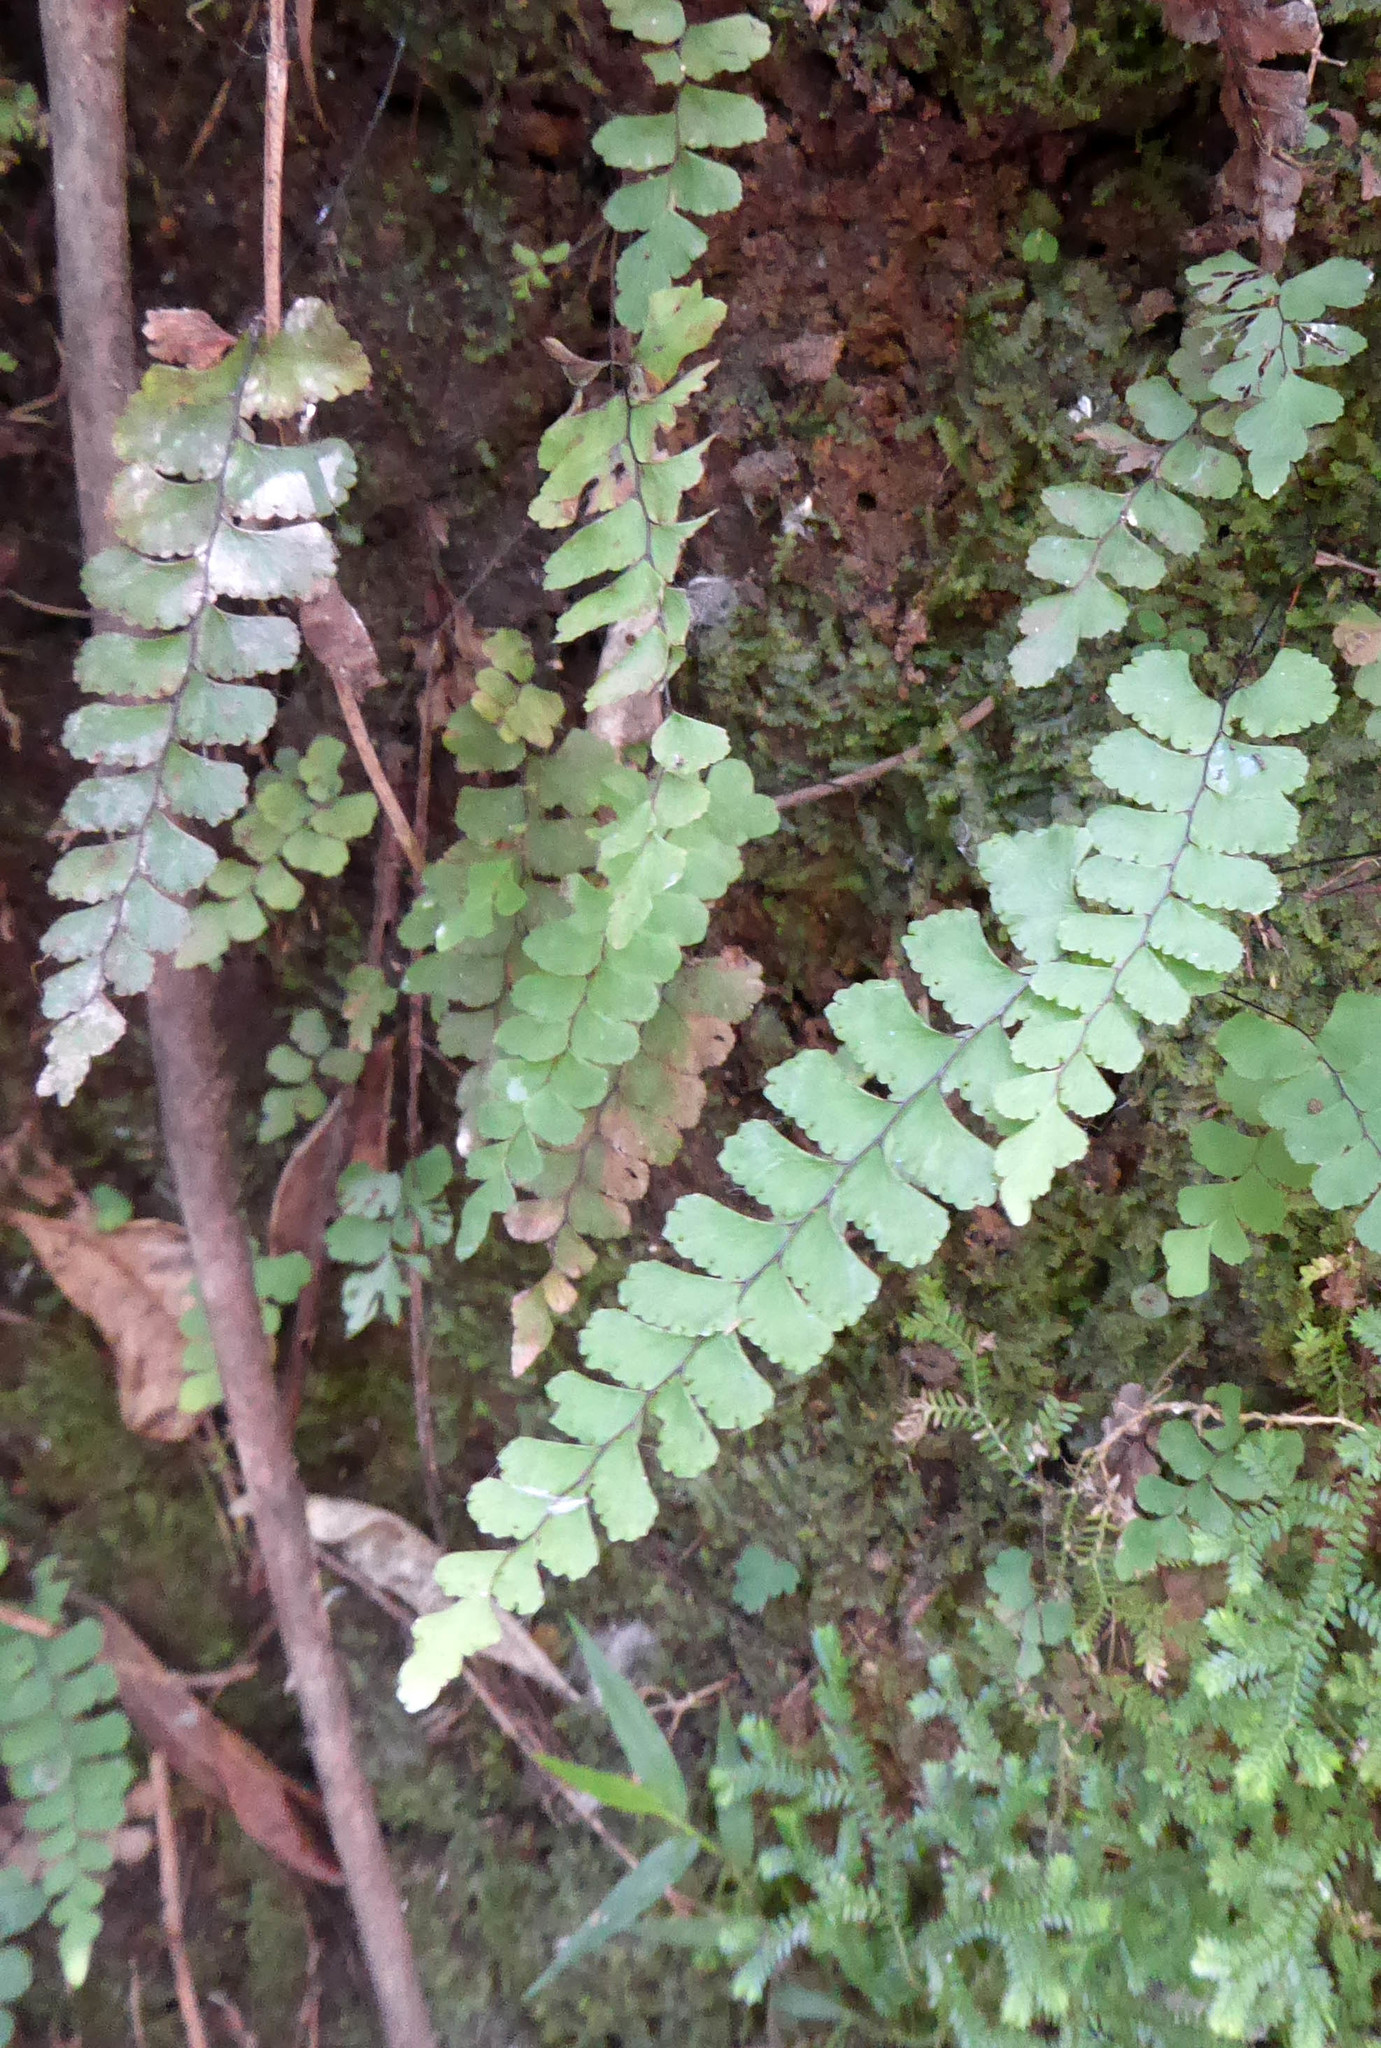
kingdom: Plantae
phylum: Tracheophyta
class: Polypodiopsida
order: Polypodiales
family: Pteridaceae
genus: Adiantum
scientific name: Adiantum diaphanum
